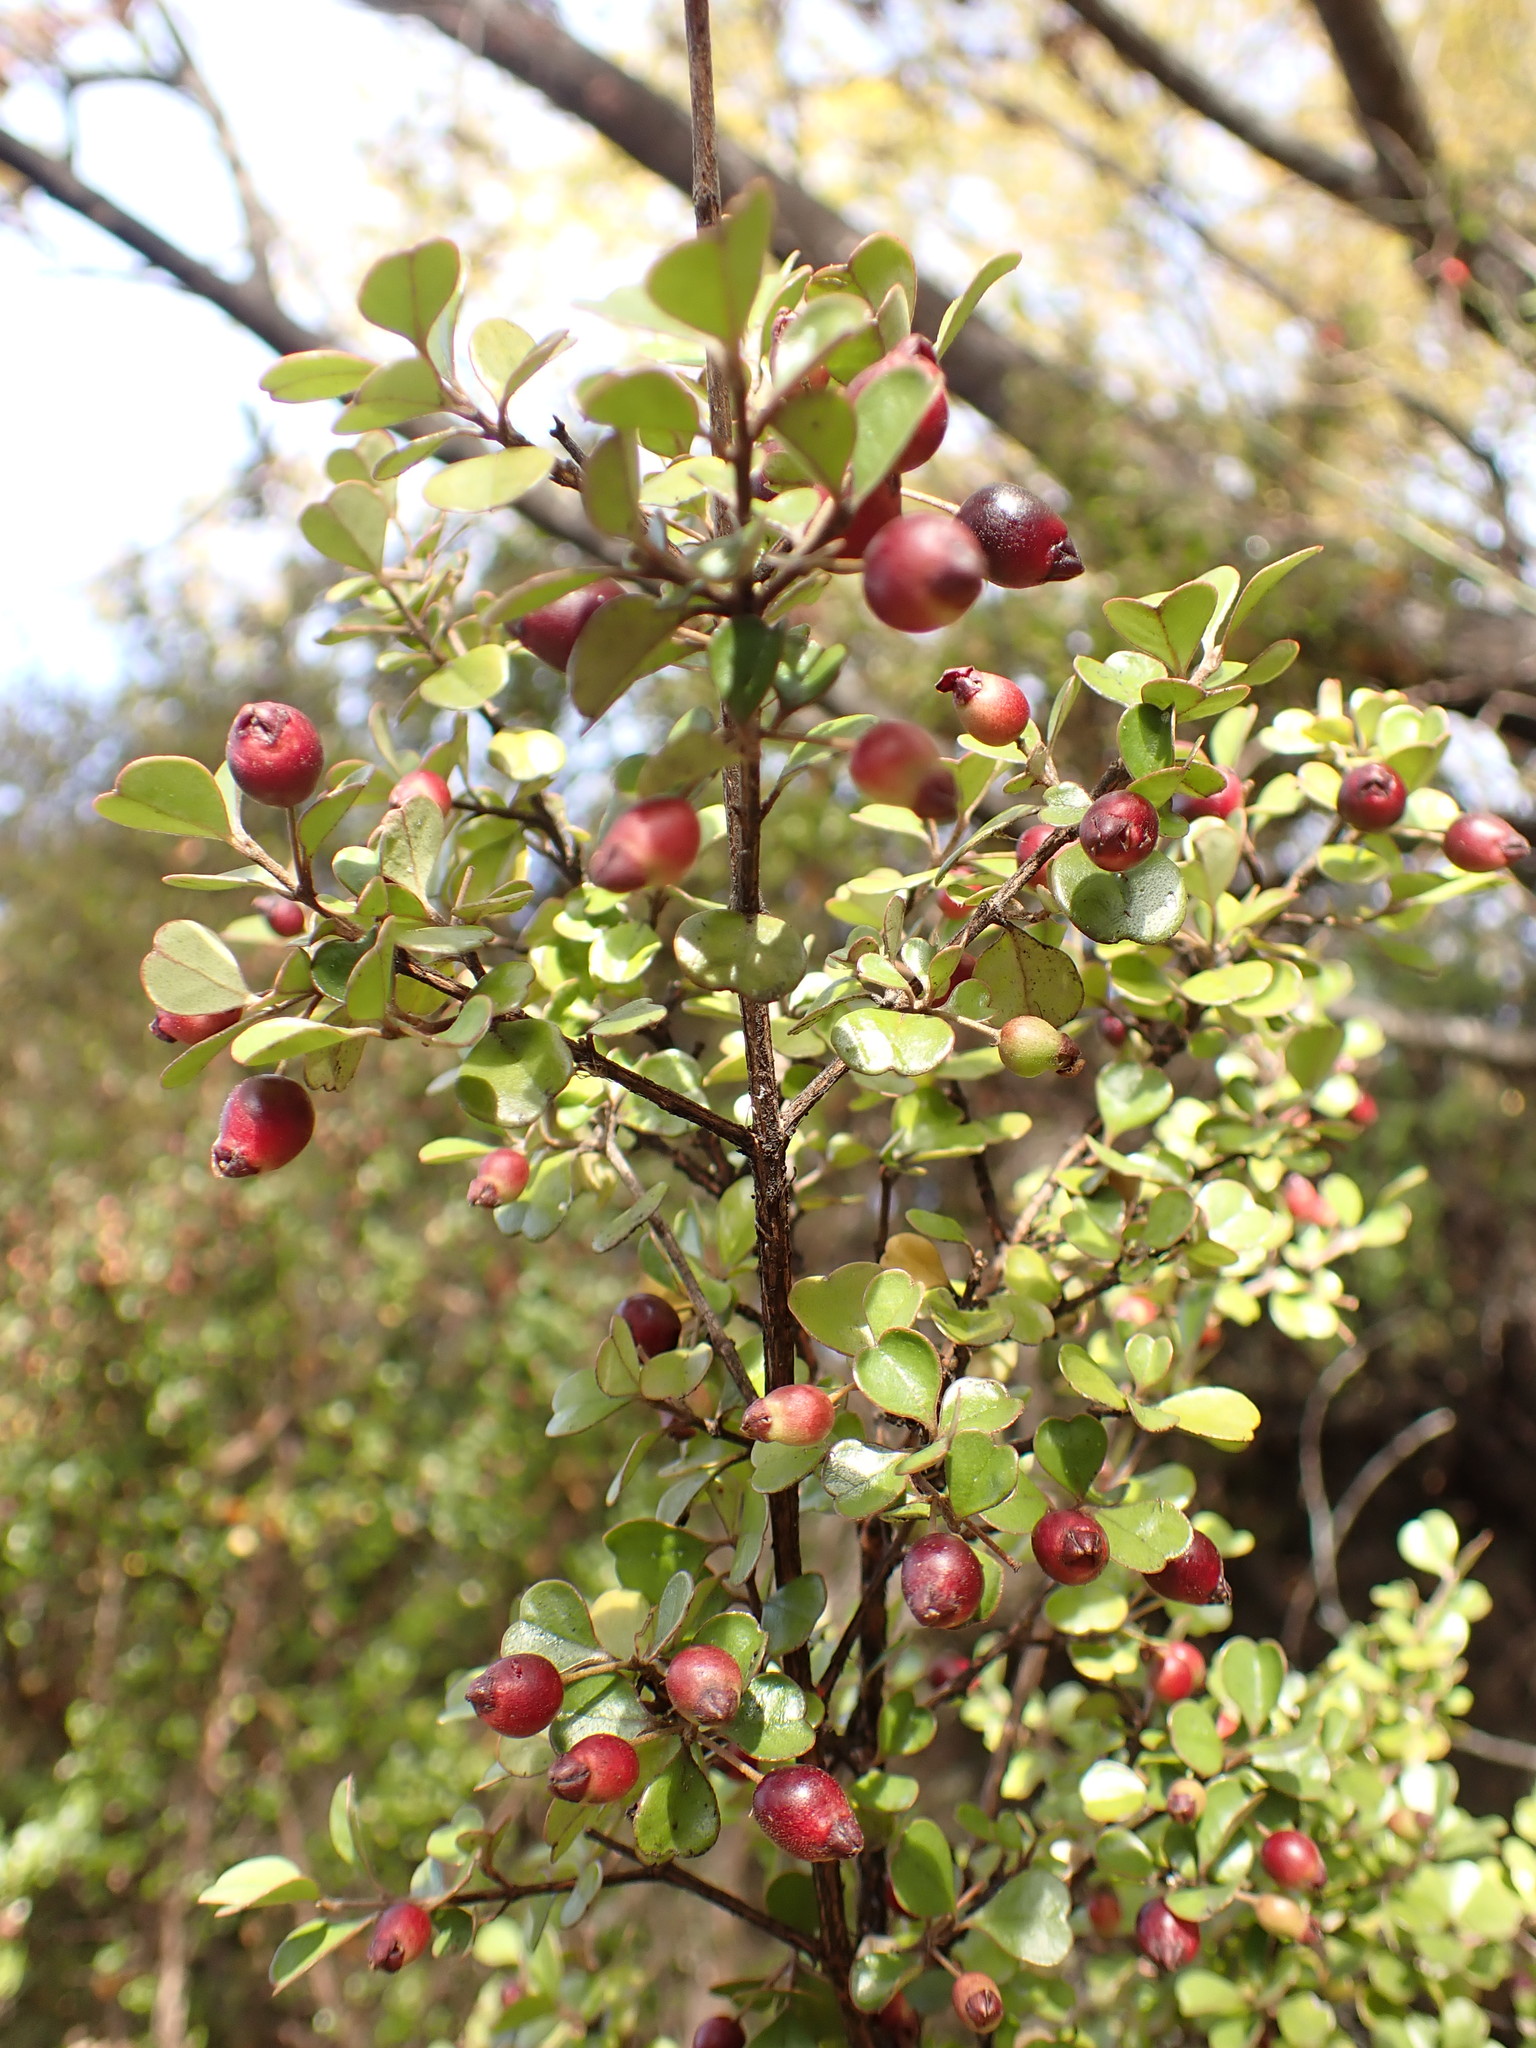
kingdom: Plantae
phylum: Tracheophyta
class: Magnoliopsida
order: Myrtales
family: Myrtaceae
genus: Lophomyrtus
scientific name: Lophomyrtus obcordata
